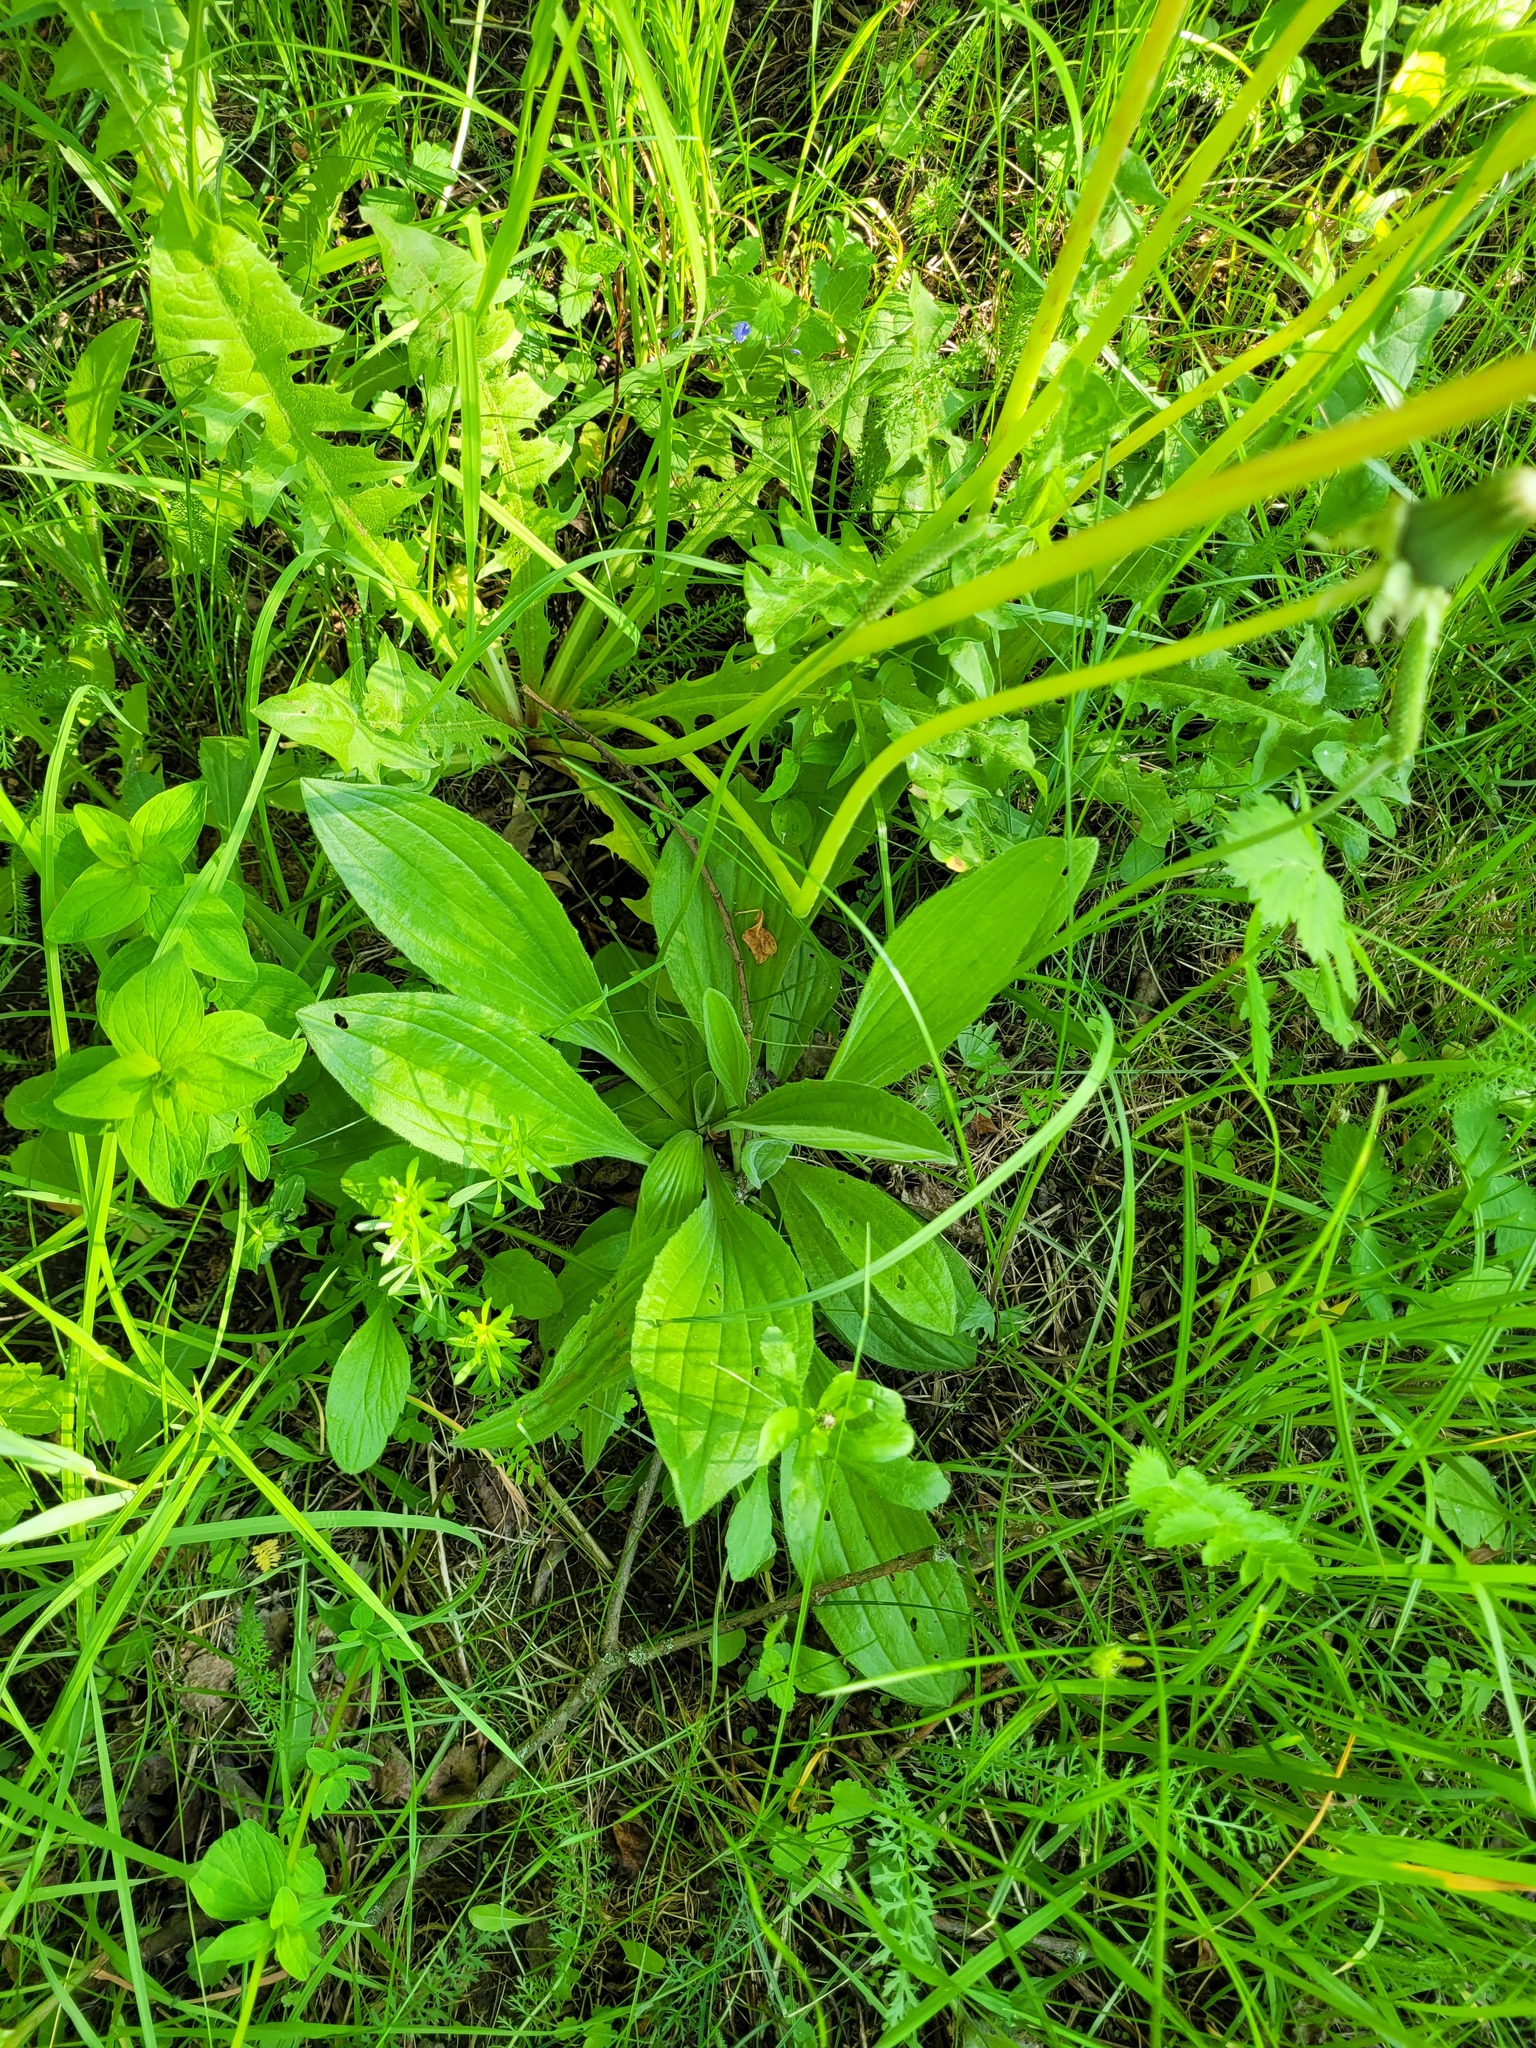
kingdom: Plantae
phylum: Tracheophyta
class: Magnoliopsida
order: Lamiales
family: Plantaginaceae
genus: Plantago
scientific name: Plantago urvillei
